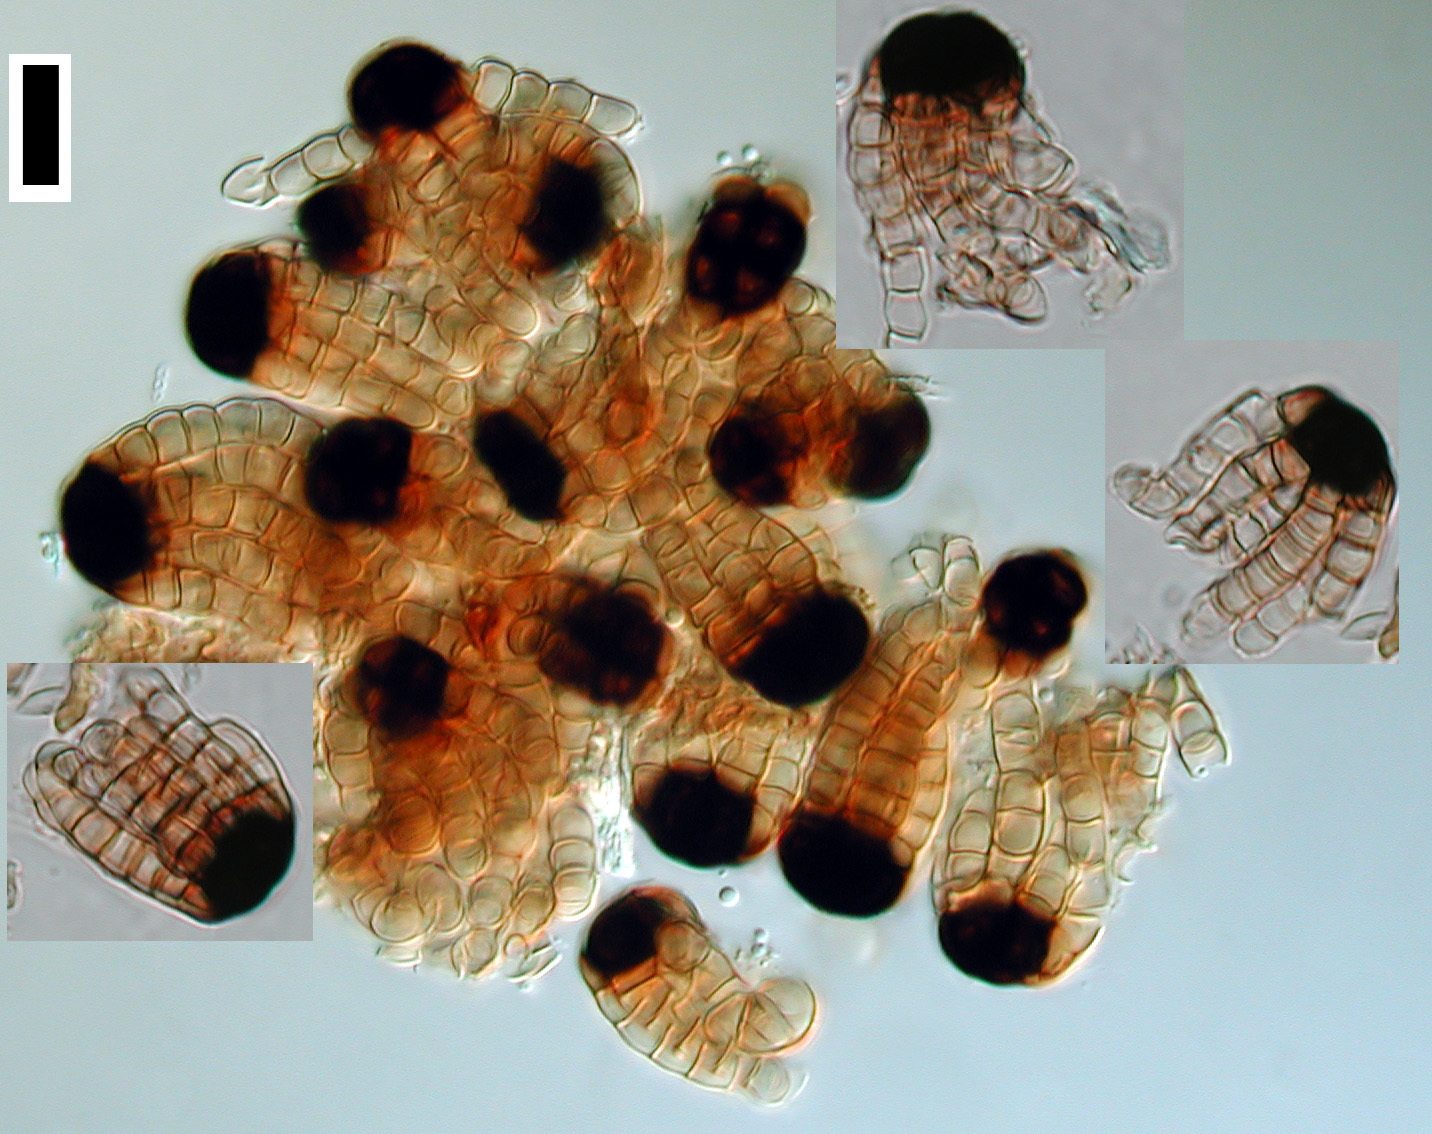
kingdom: Fungi
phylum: Ascomycota
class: Dothideomycetes
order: Pleosporales
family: Cryptocoryneaceae
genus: Cryptocoryneum
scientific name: Cryptocoryneum rilstonei
